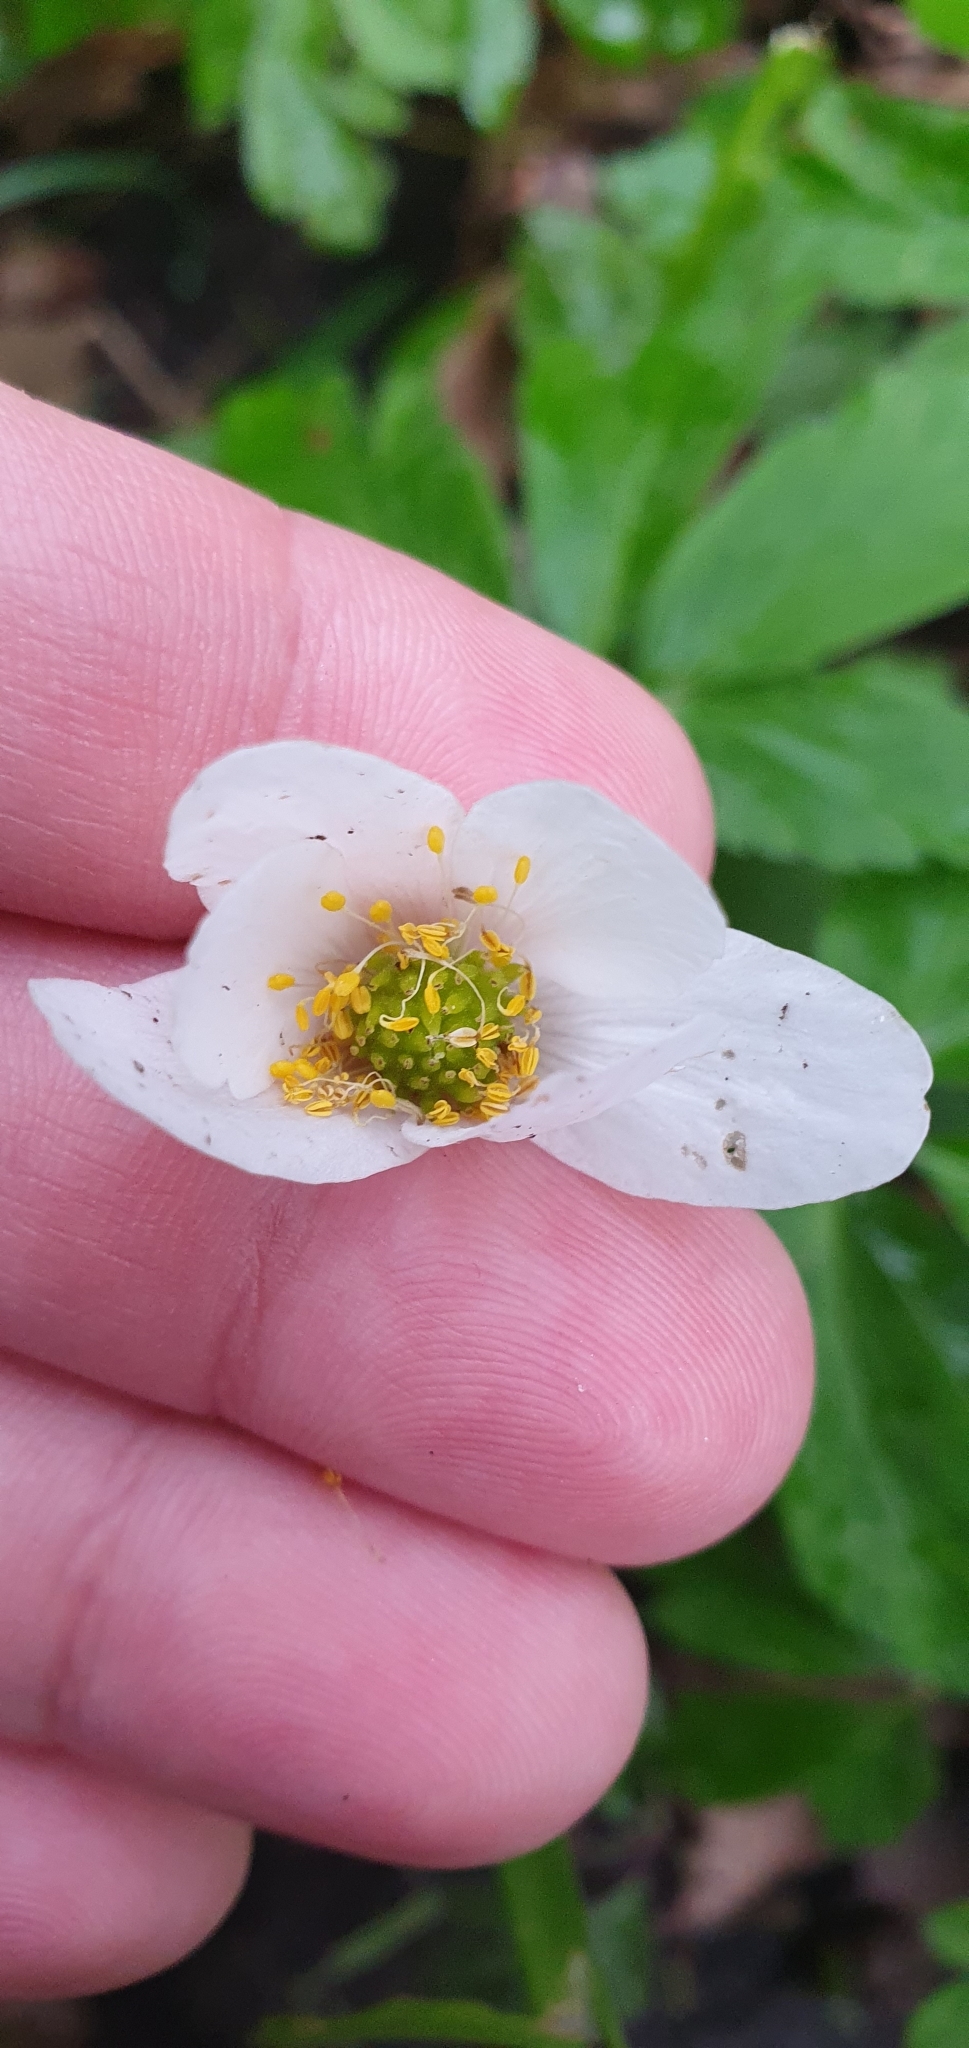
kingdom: Plantae
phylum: Tracheophyta
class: Magnoliopsida
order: Ranunculales
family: Ranunculaceae
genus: Anemone
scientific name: Anemone nemorosa
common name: Wood anemone
